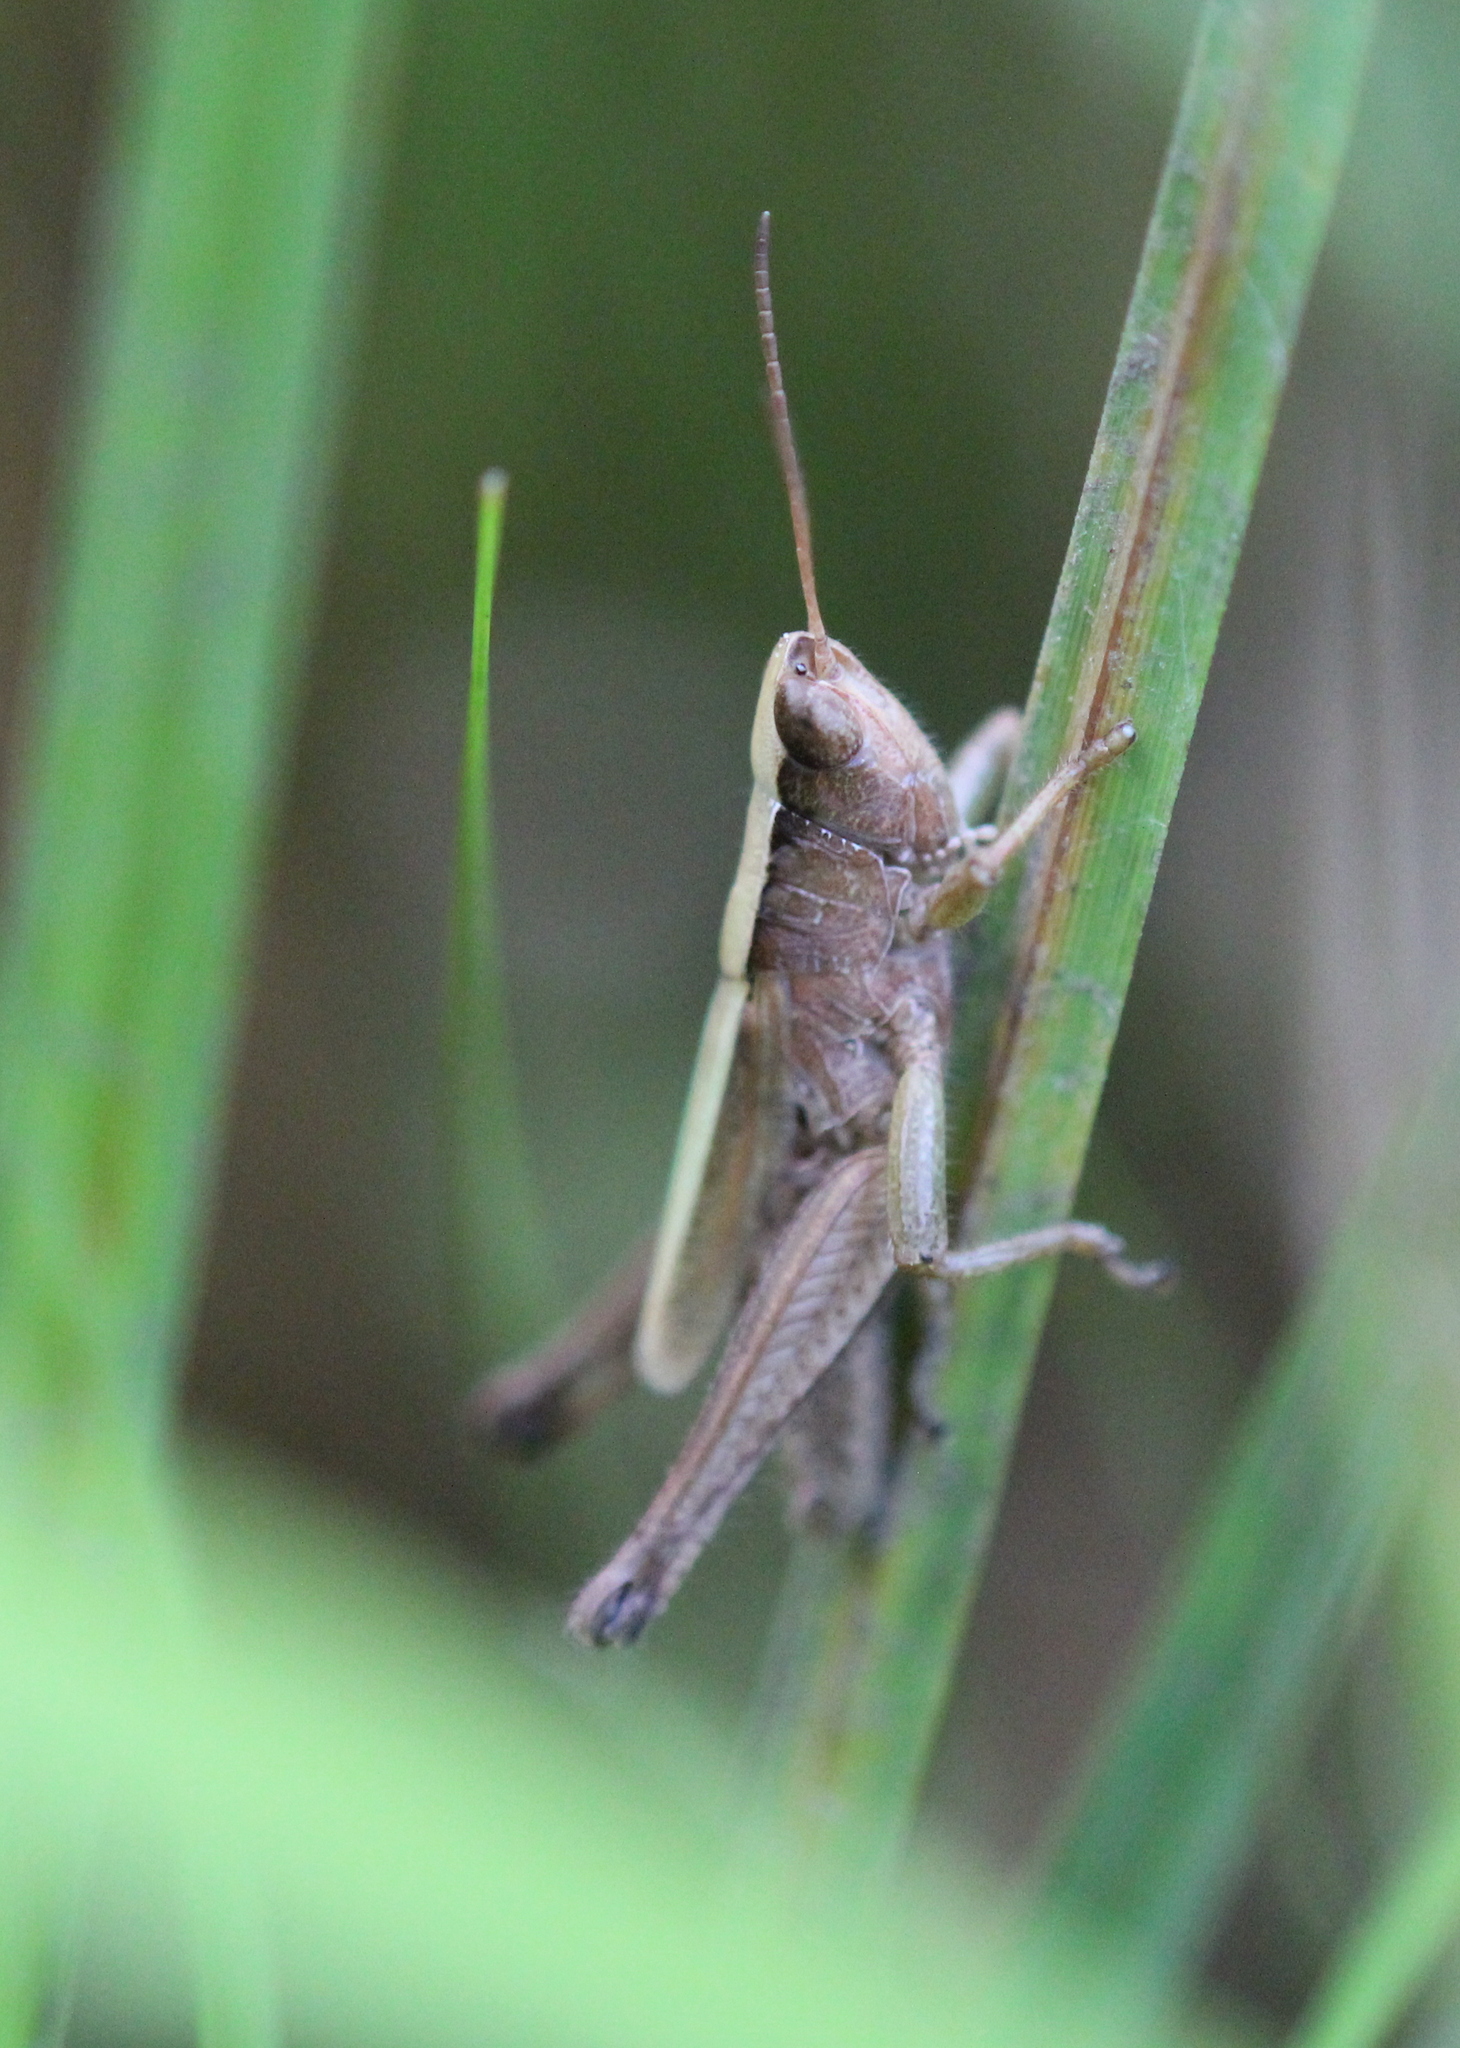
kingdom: Animalia
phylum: Arthropoda
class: Insecta
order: Orthoptera
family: Acrididae
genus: Dichromorpha
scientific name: Dichromorpha viridis
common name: Short-winged green grasshopper
